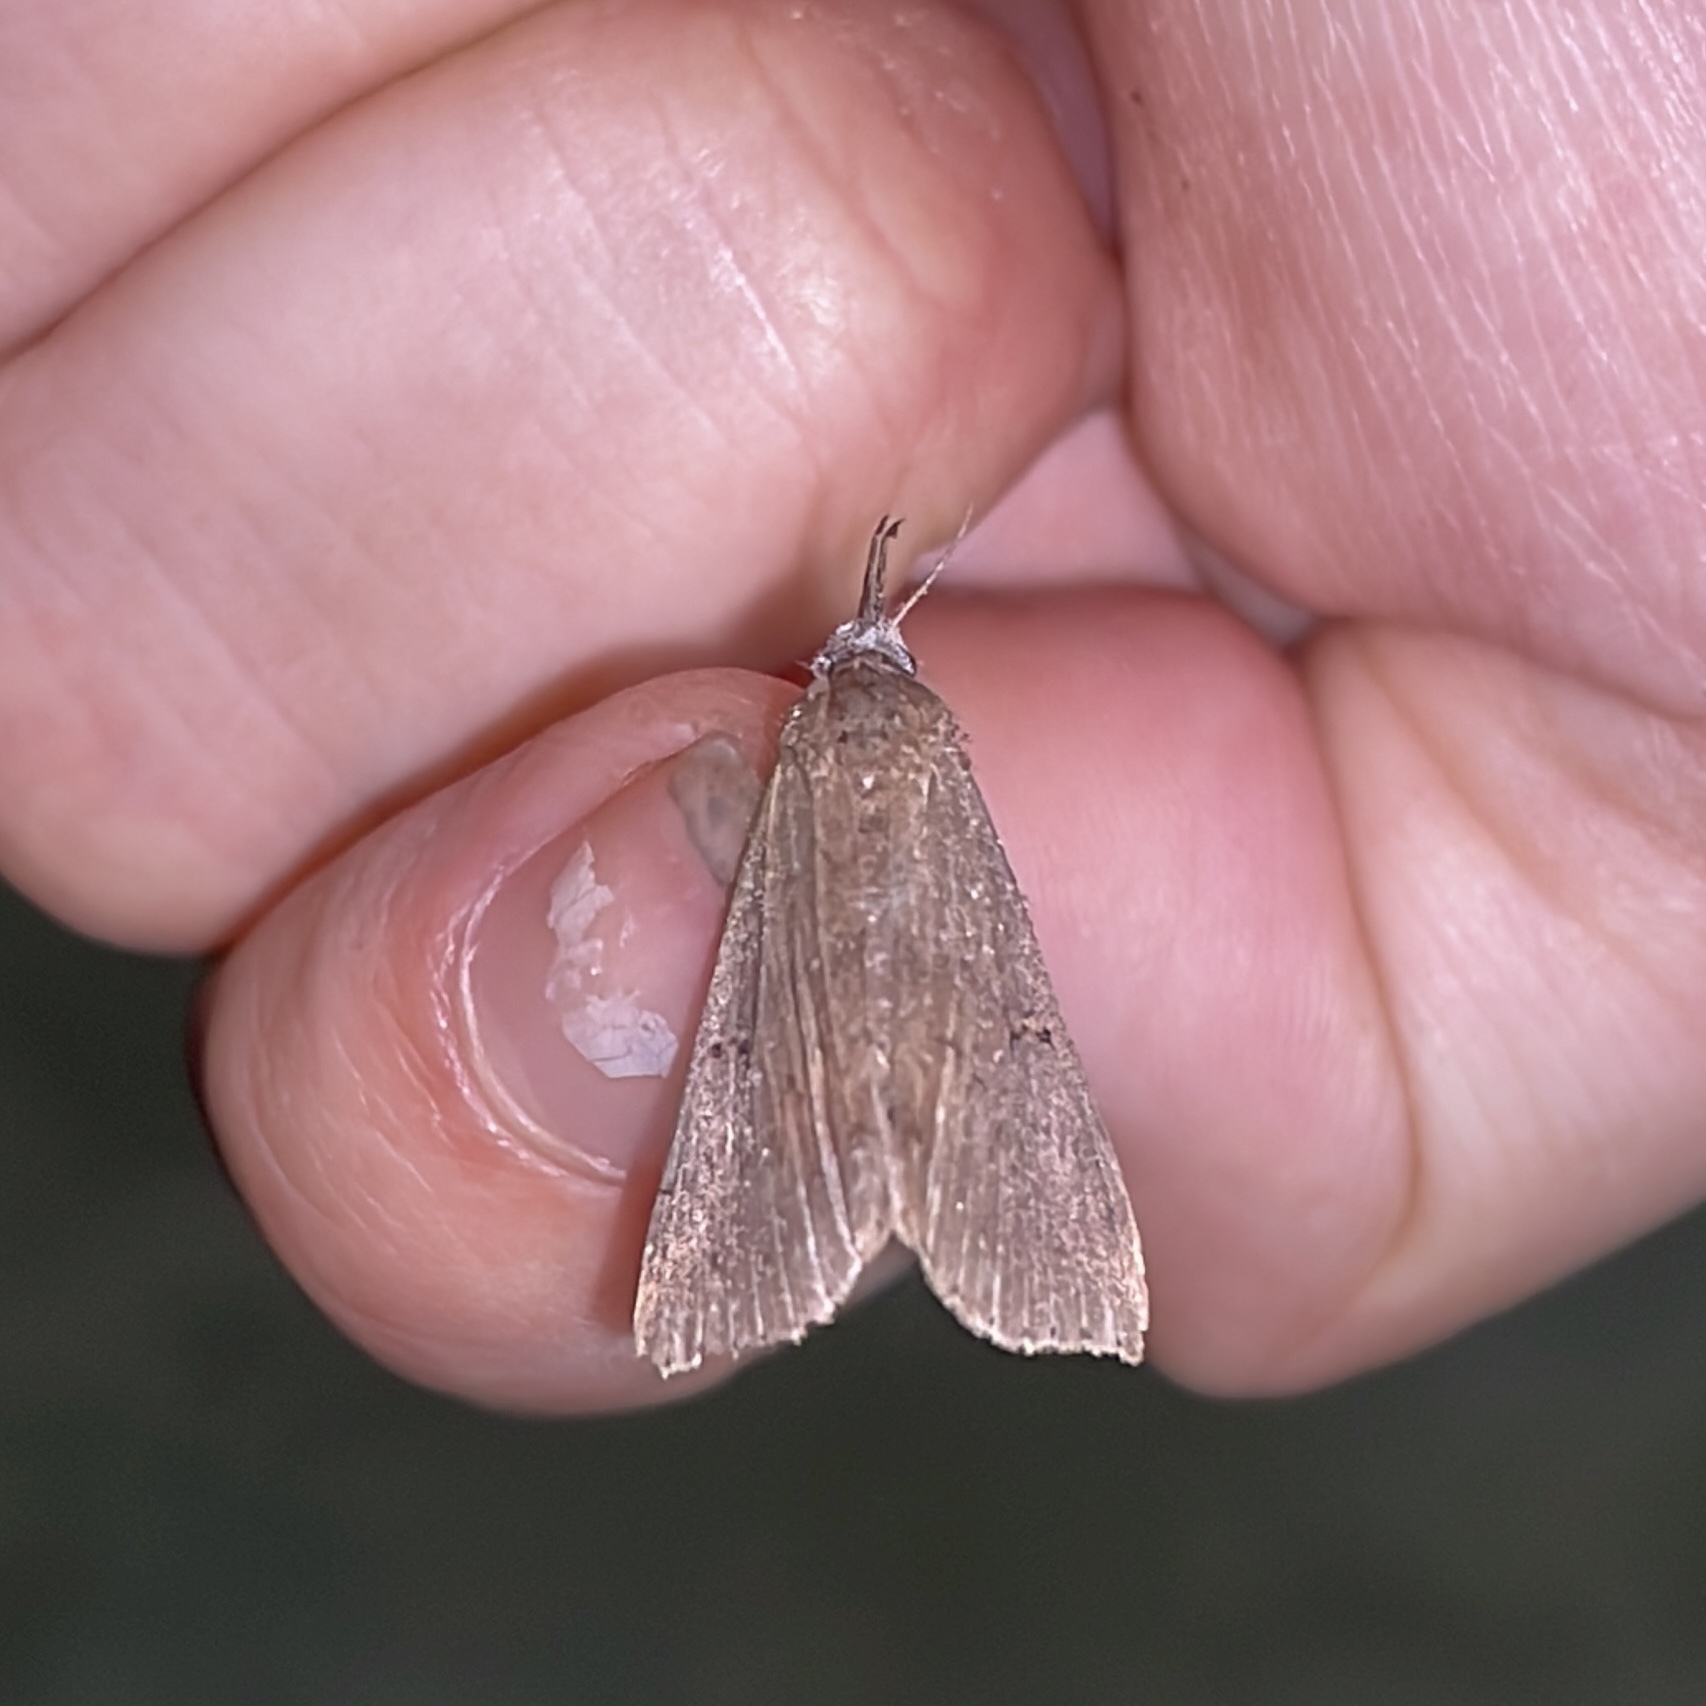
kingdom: Animalia
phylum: Arthropoda
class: Insecta
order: Lepidoptera
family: Erebidae
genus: Renia
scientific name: Renia bipunctata
